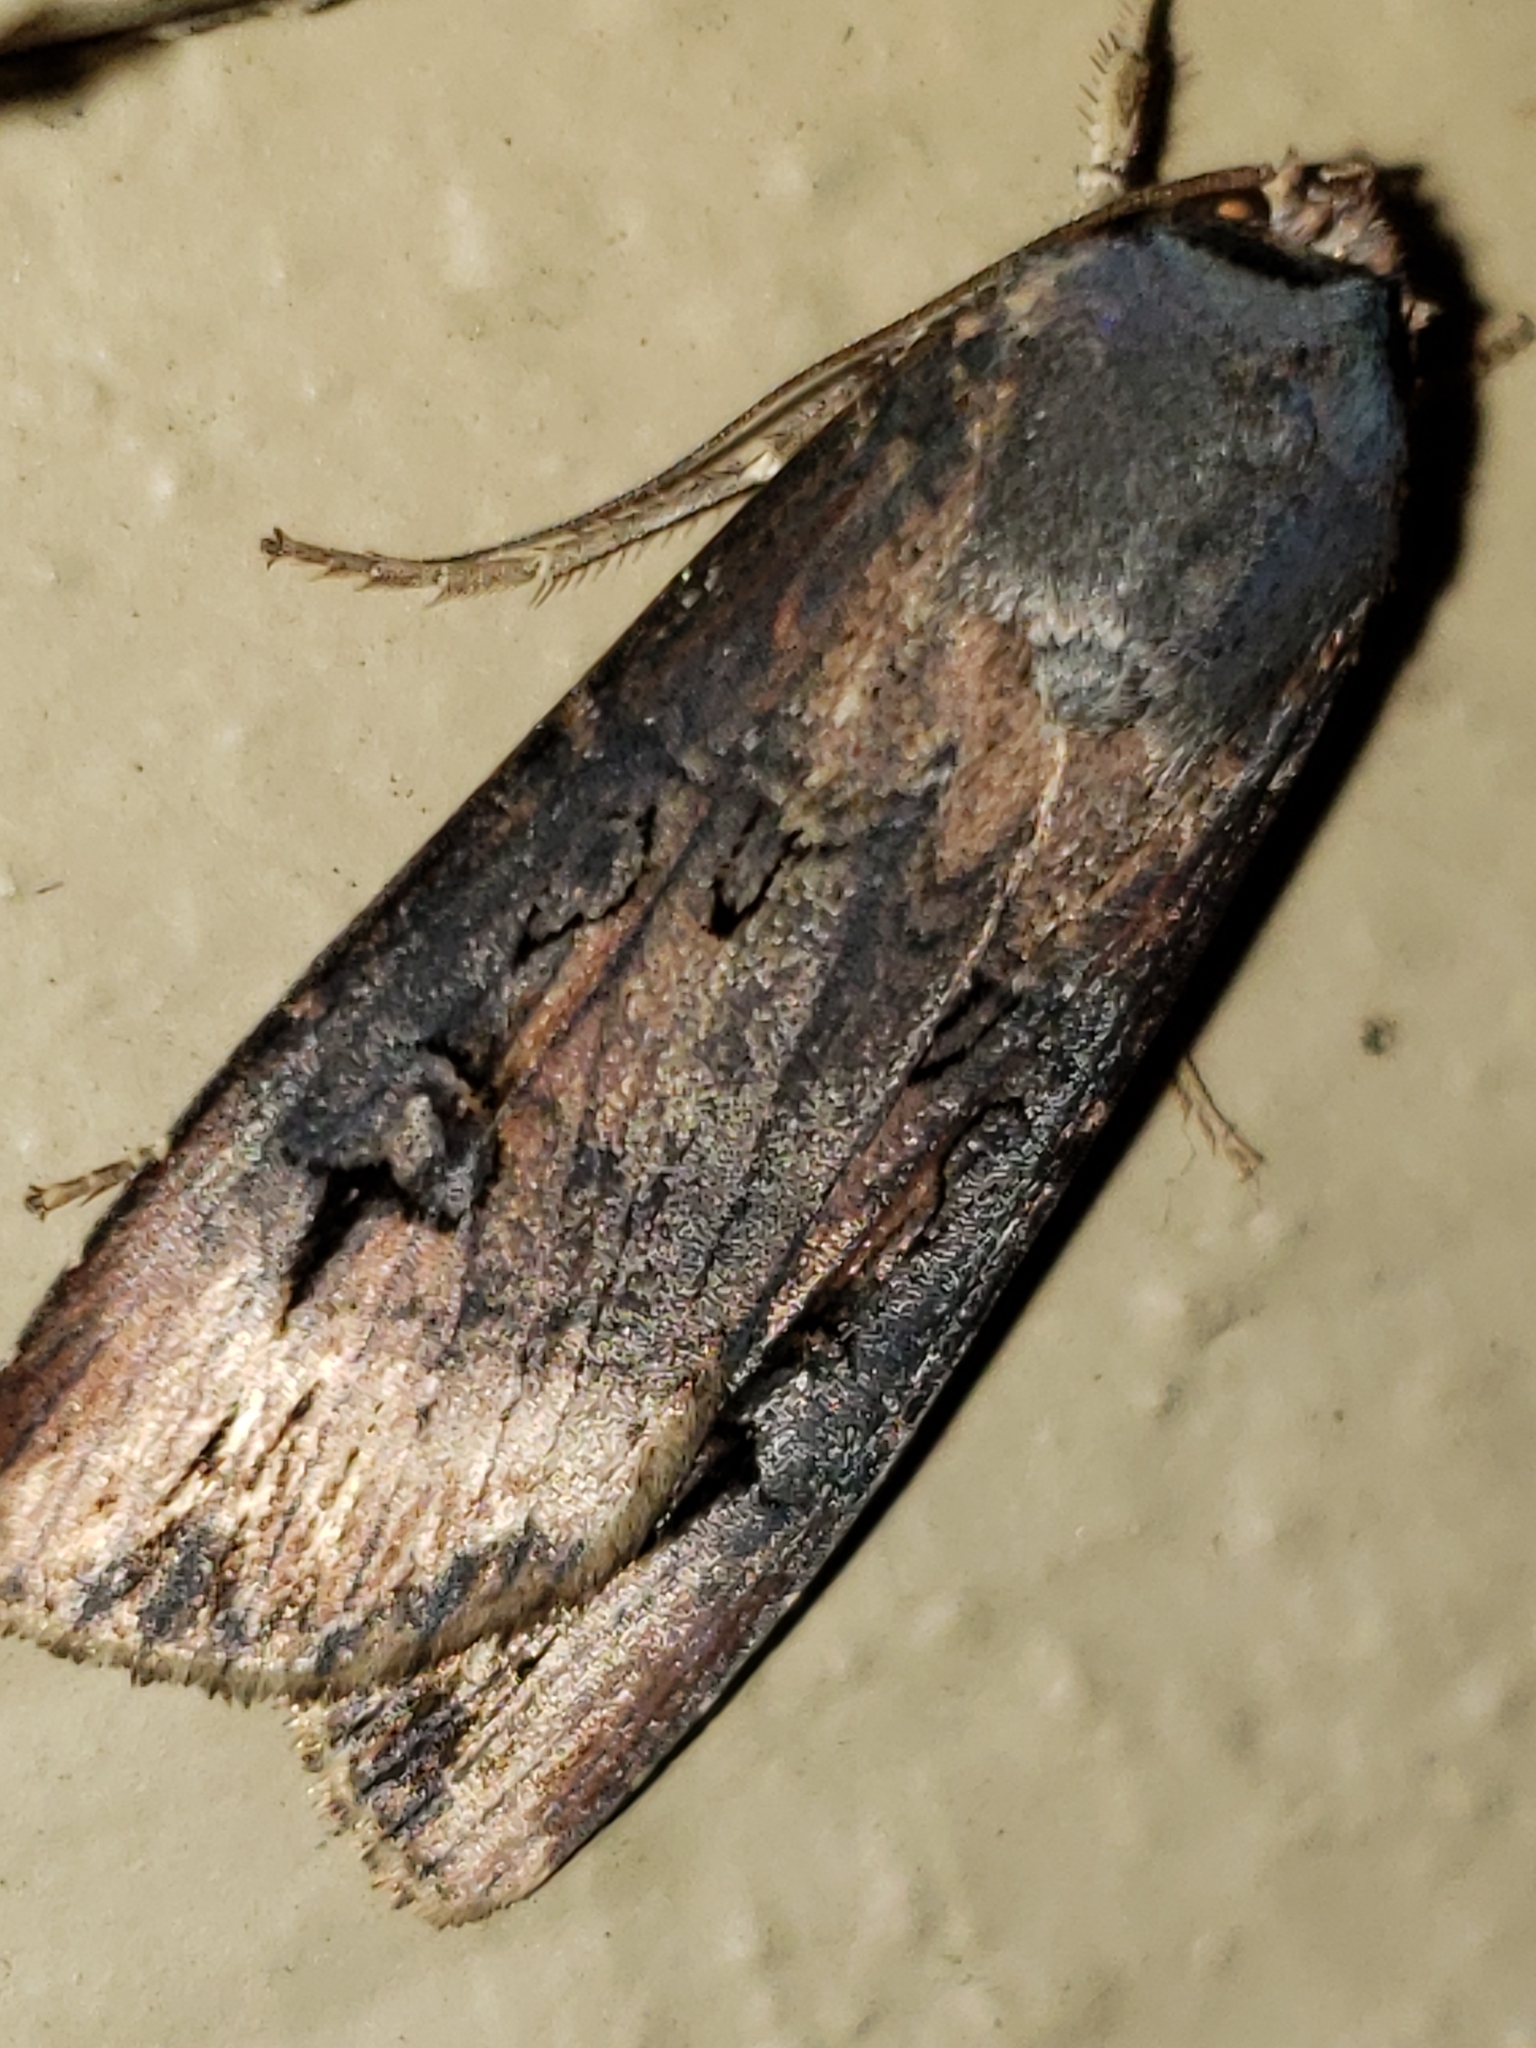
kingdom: Animalia
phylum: Arthropoda
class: Insecta
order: Lepidoptera
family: Noctuidae
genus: Agrotis
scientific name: Agrotis ipsilon
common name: Dark sword-grass
